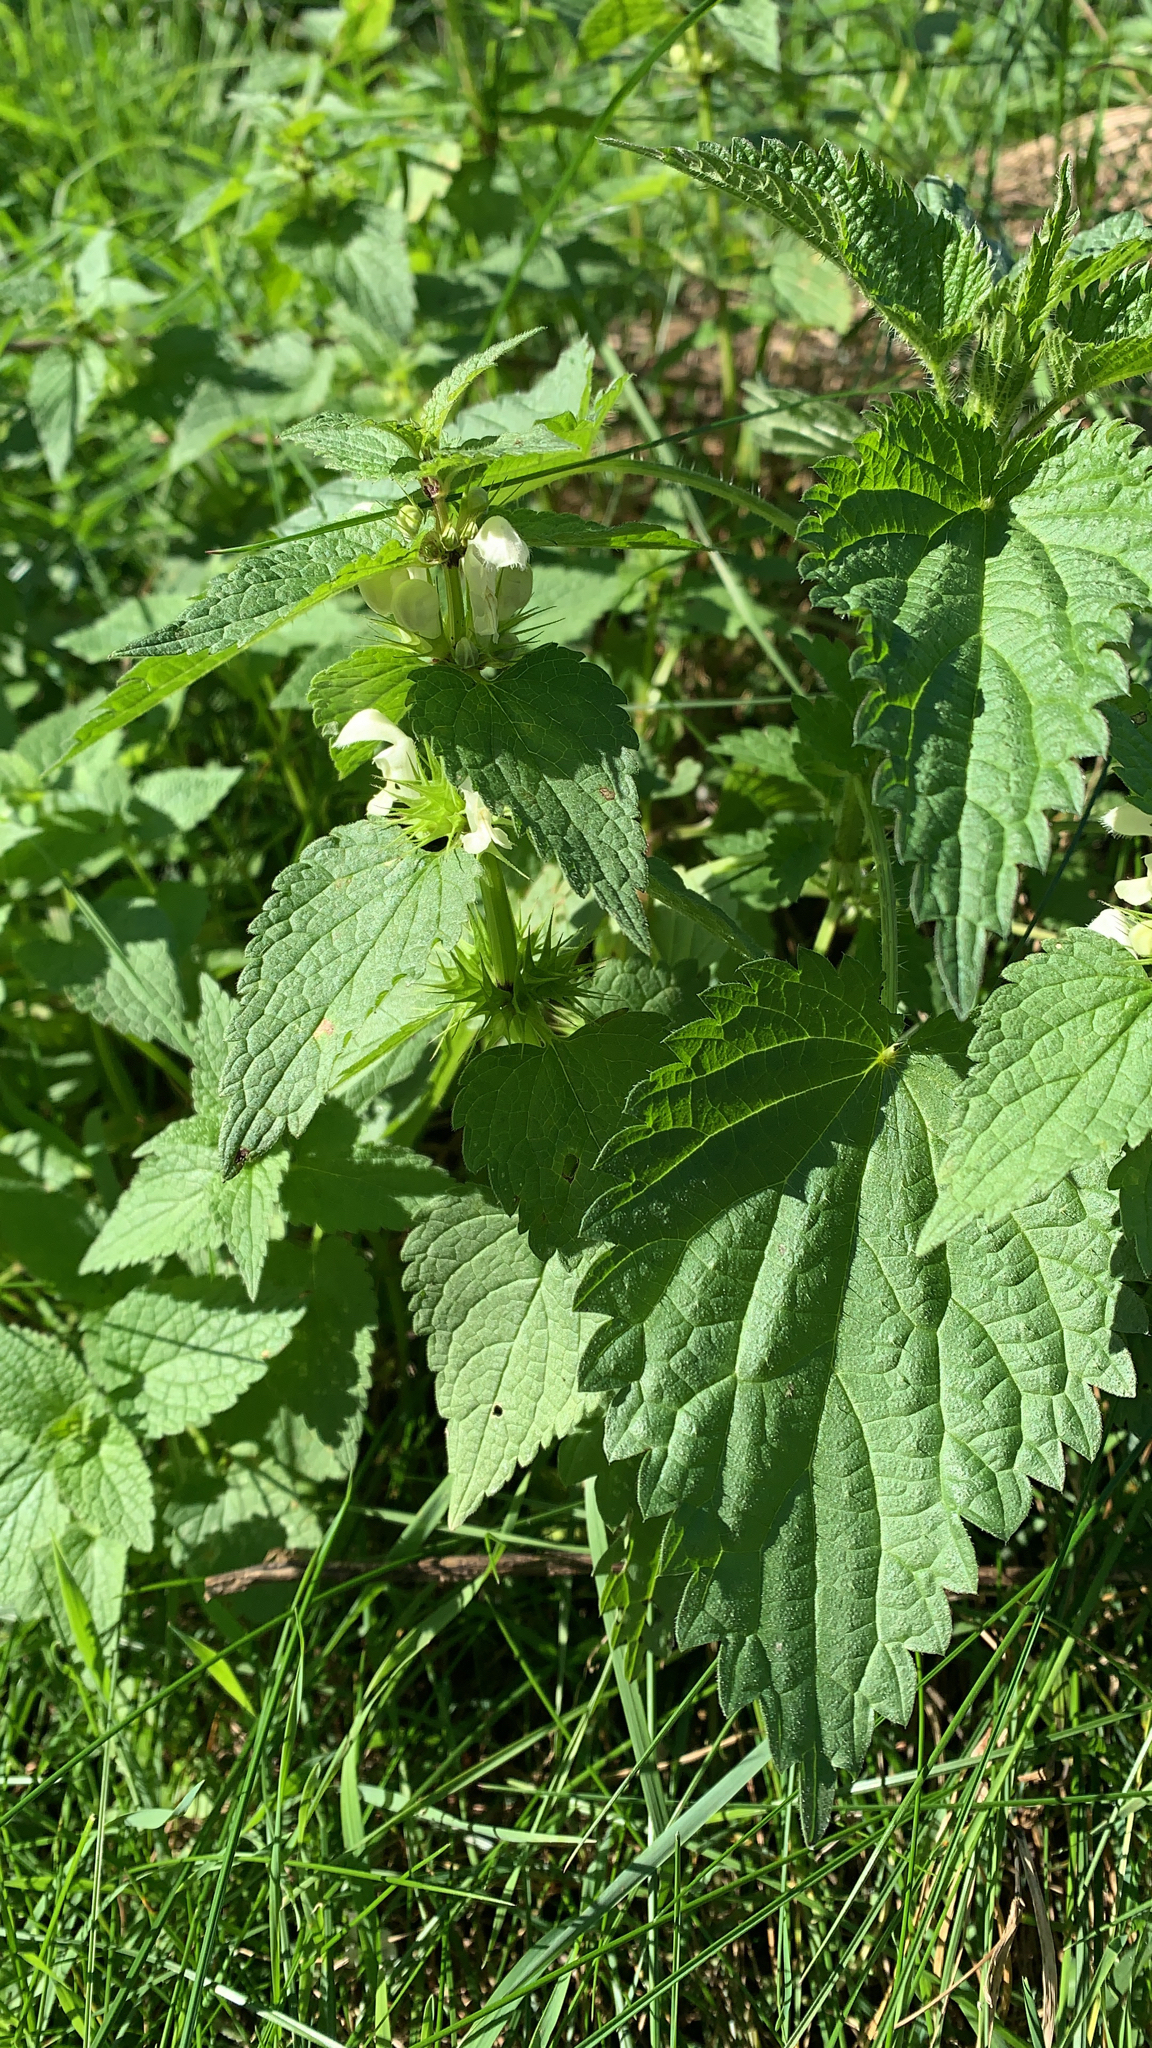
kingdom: Plantae
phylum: Tracheophyta
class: Magnoliopsida
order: Lamiales
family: Lamiaceae
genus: Lamium
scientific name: Lamium album
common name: White dead-nettle
